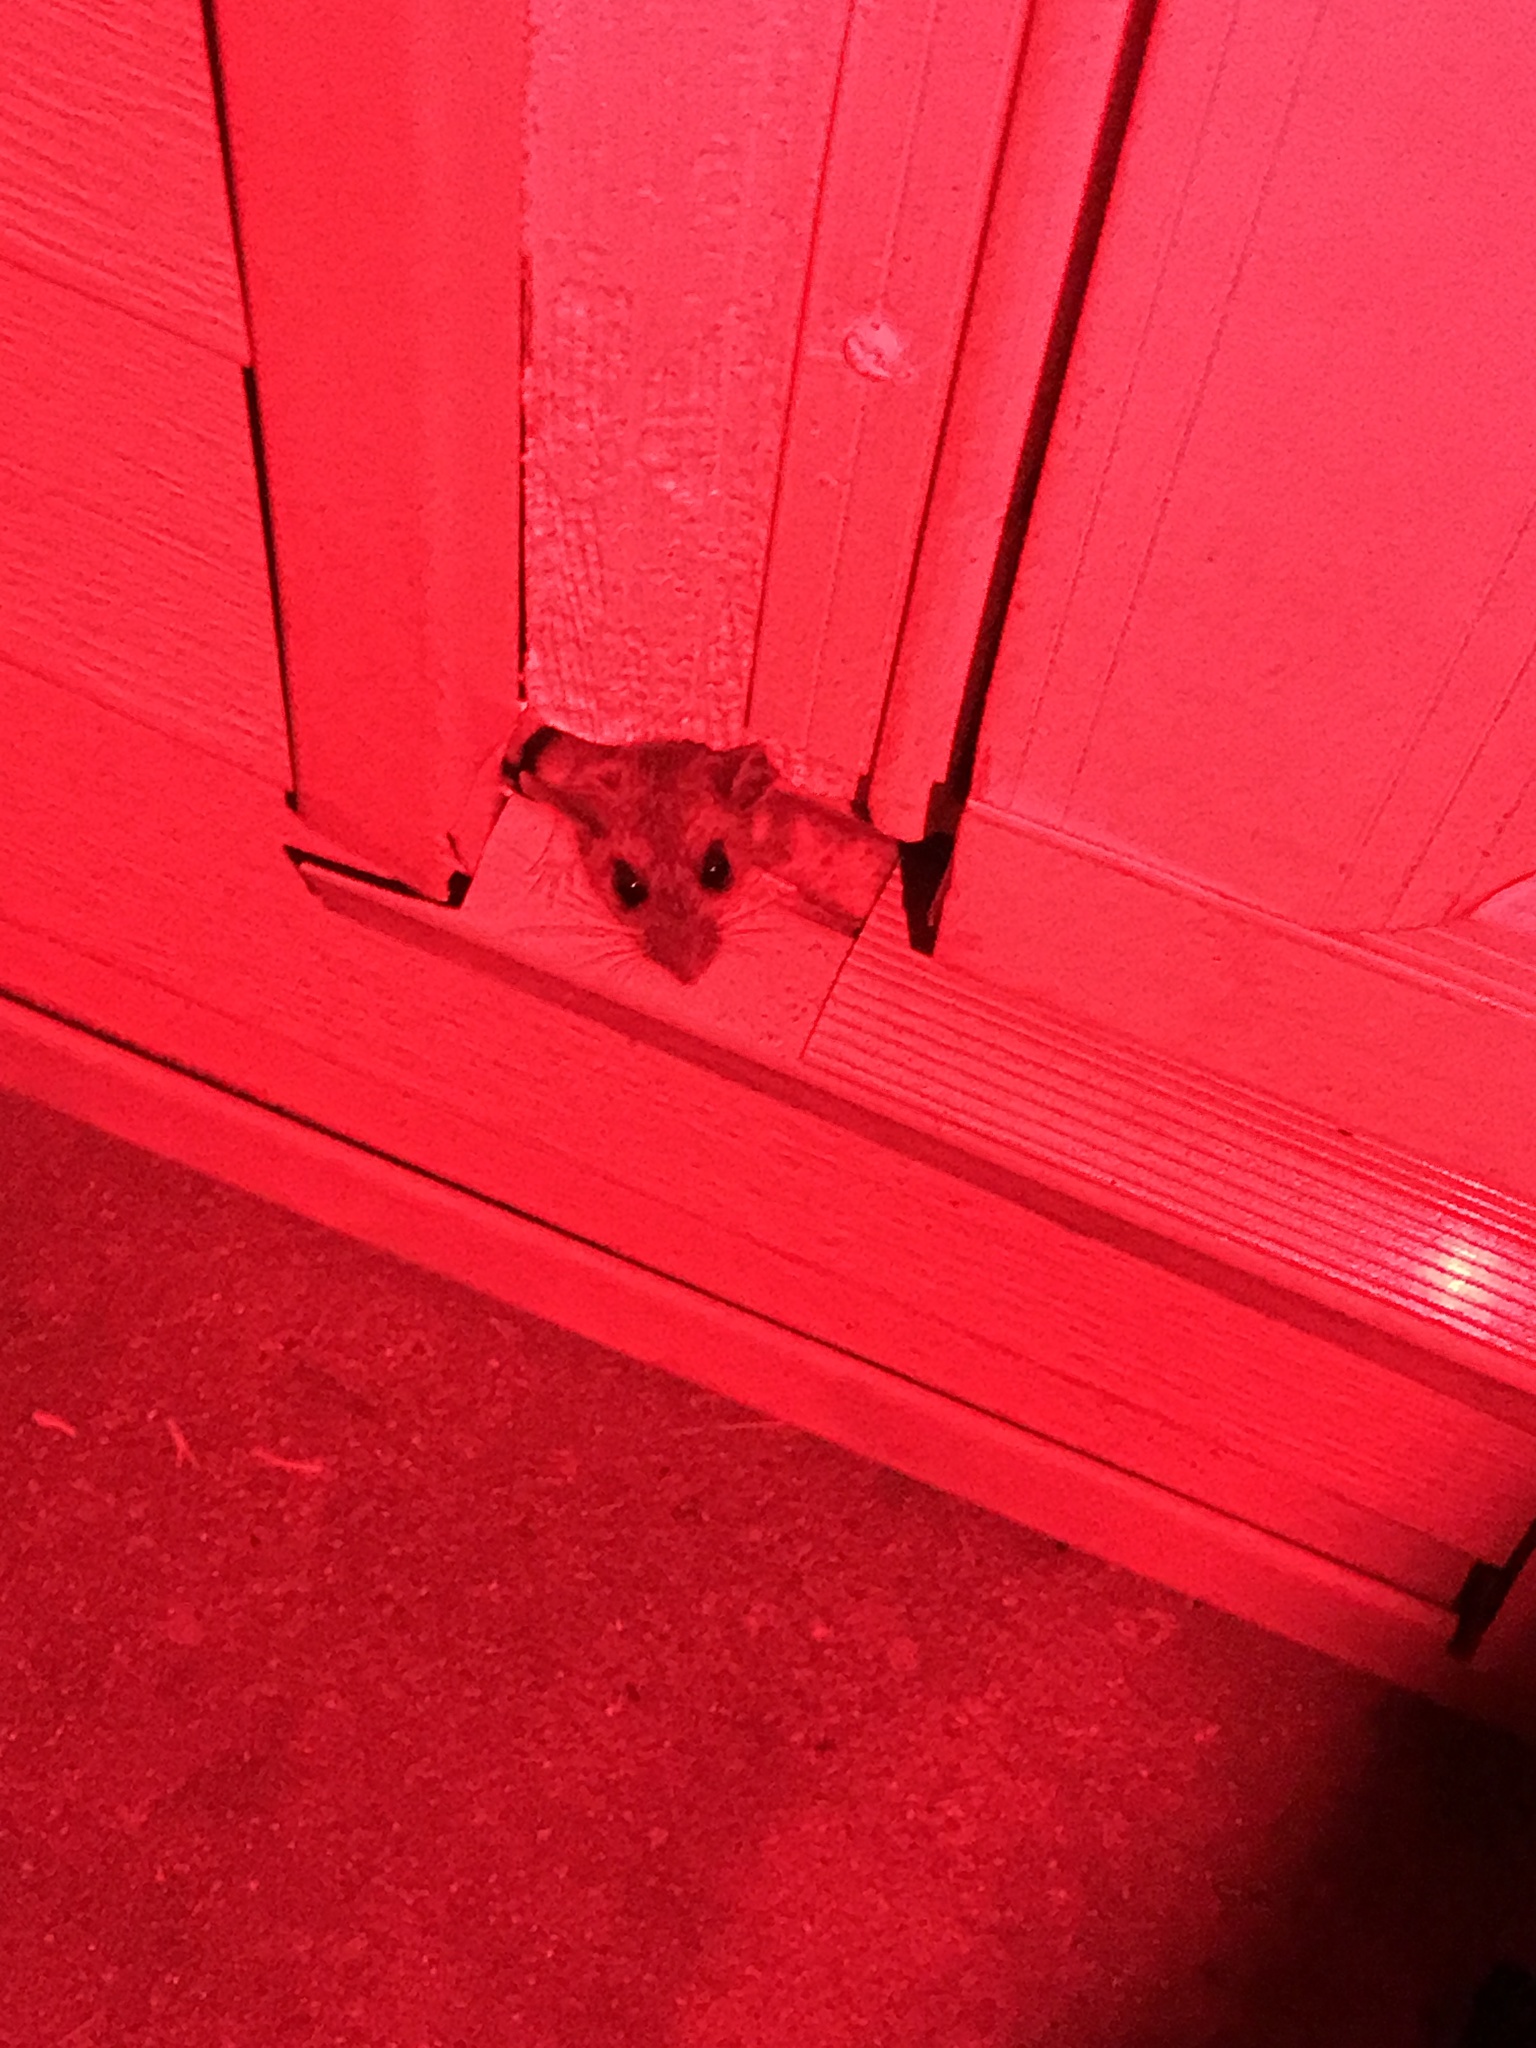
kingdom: Animalia
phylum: Chordata
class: Mammalia
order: Rodentia
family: Muridae
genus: Mus
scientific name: Mus musculus
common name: House mouse
